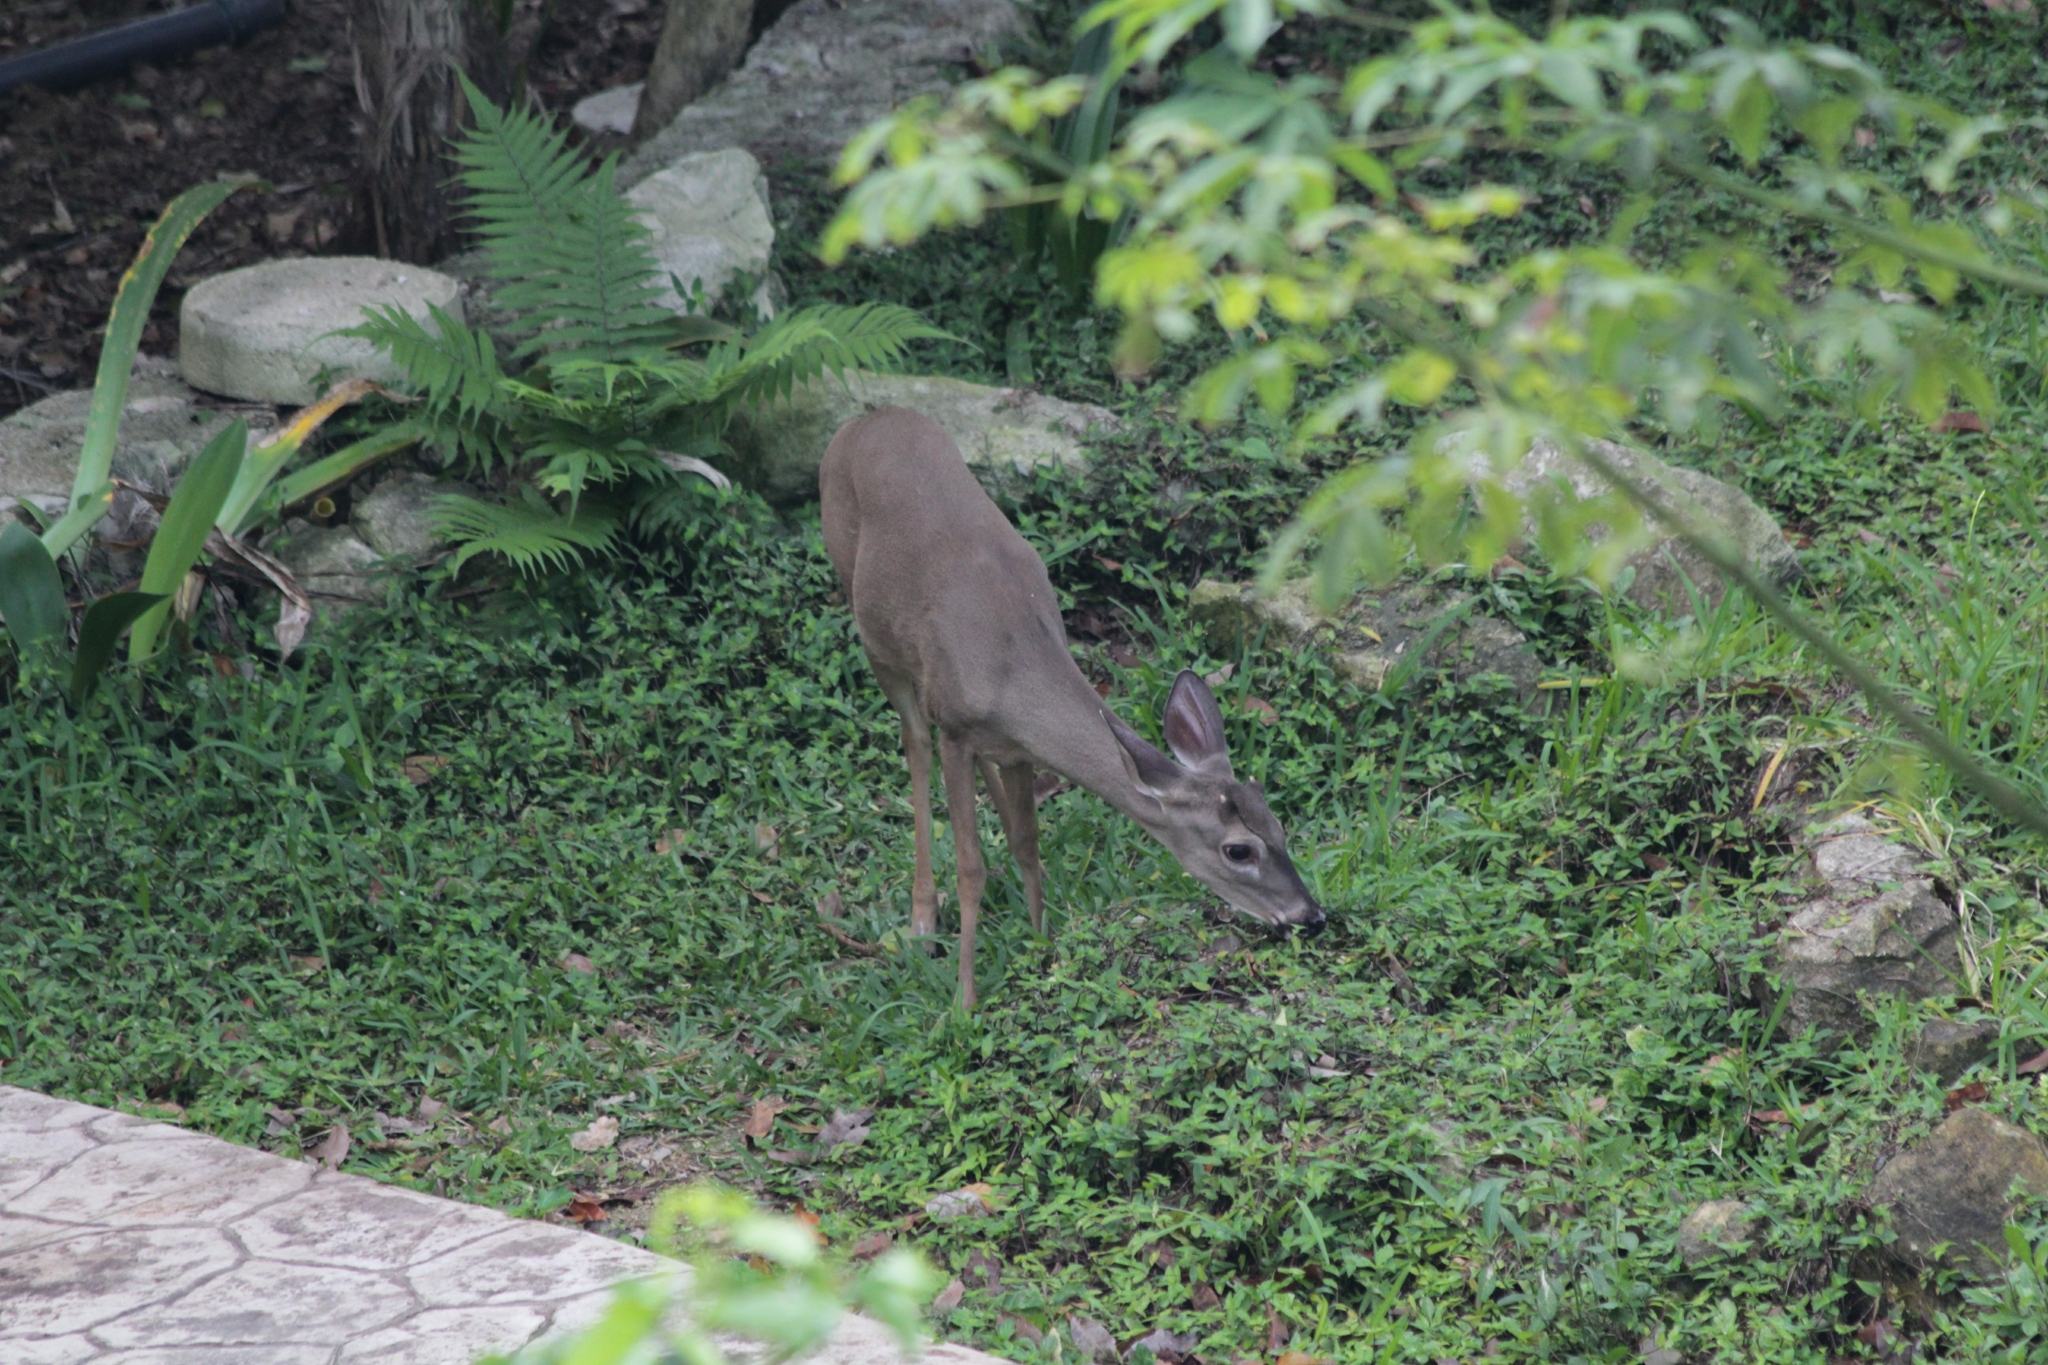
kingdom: Animalia
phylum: Chordata
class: Mammalia
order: Artiodactyla
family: Cervidae
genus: Odocoileus
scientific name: Odocoileus virginianus
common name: White-tailed deer
